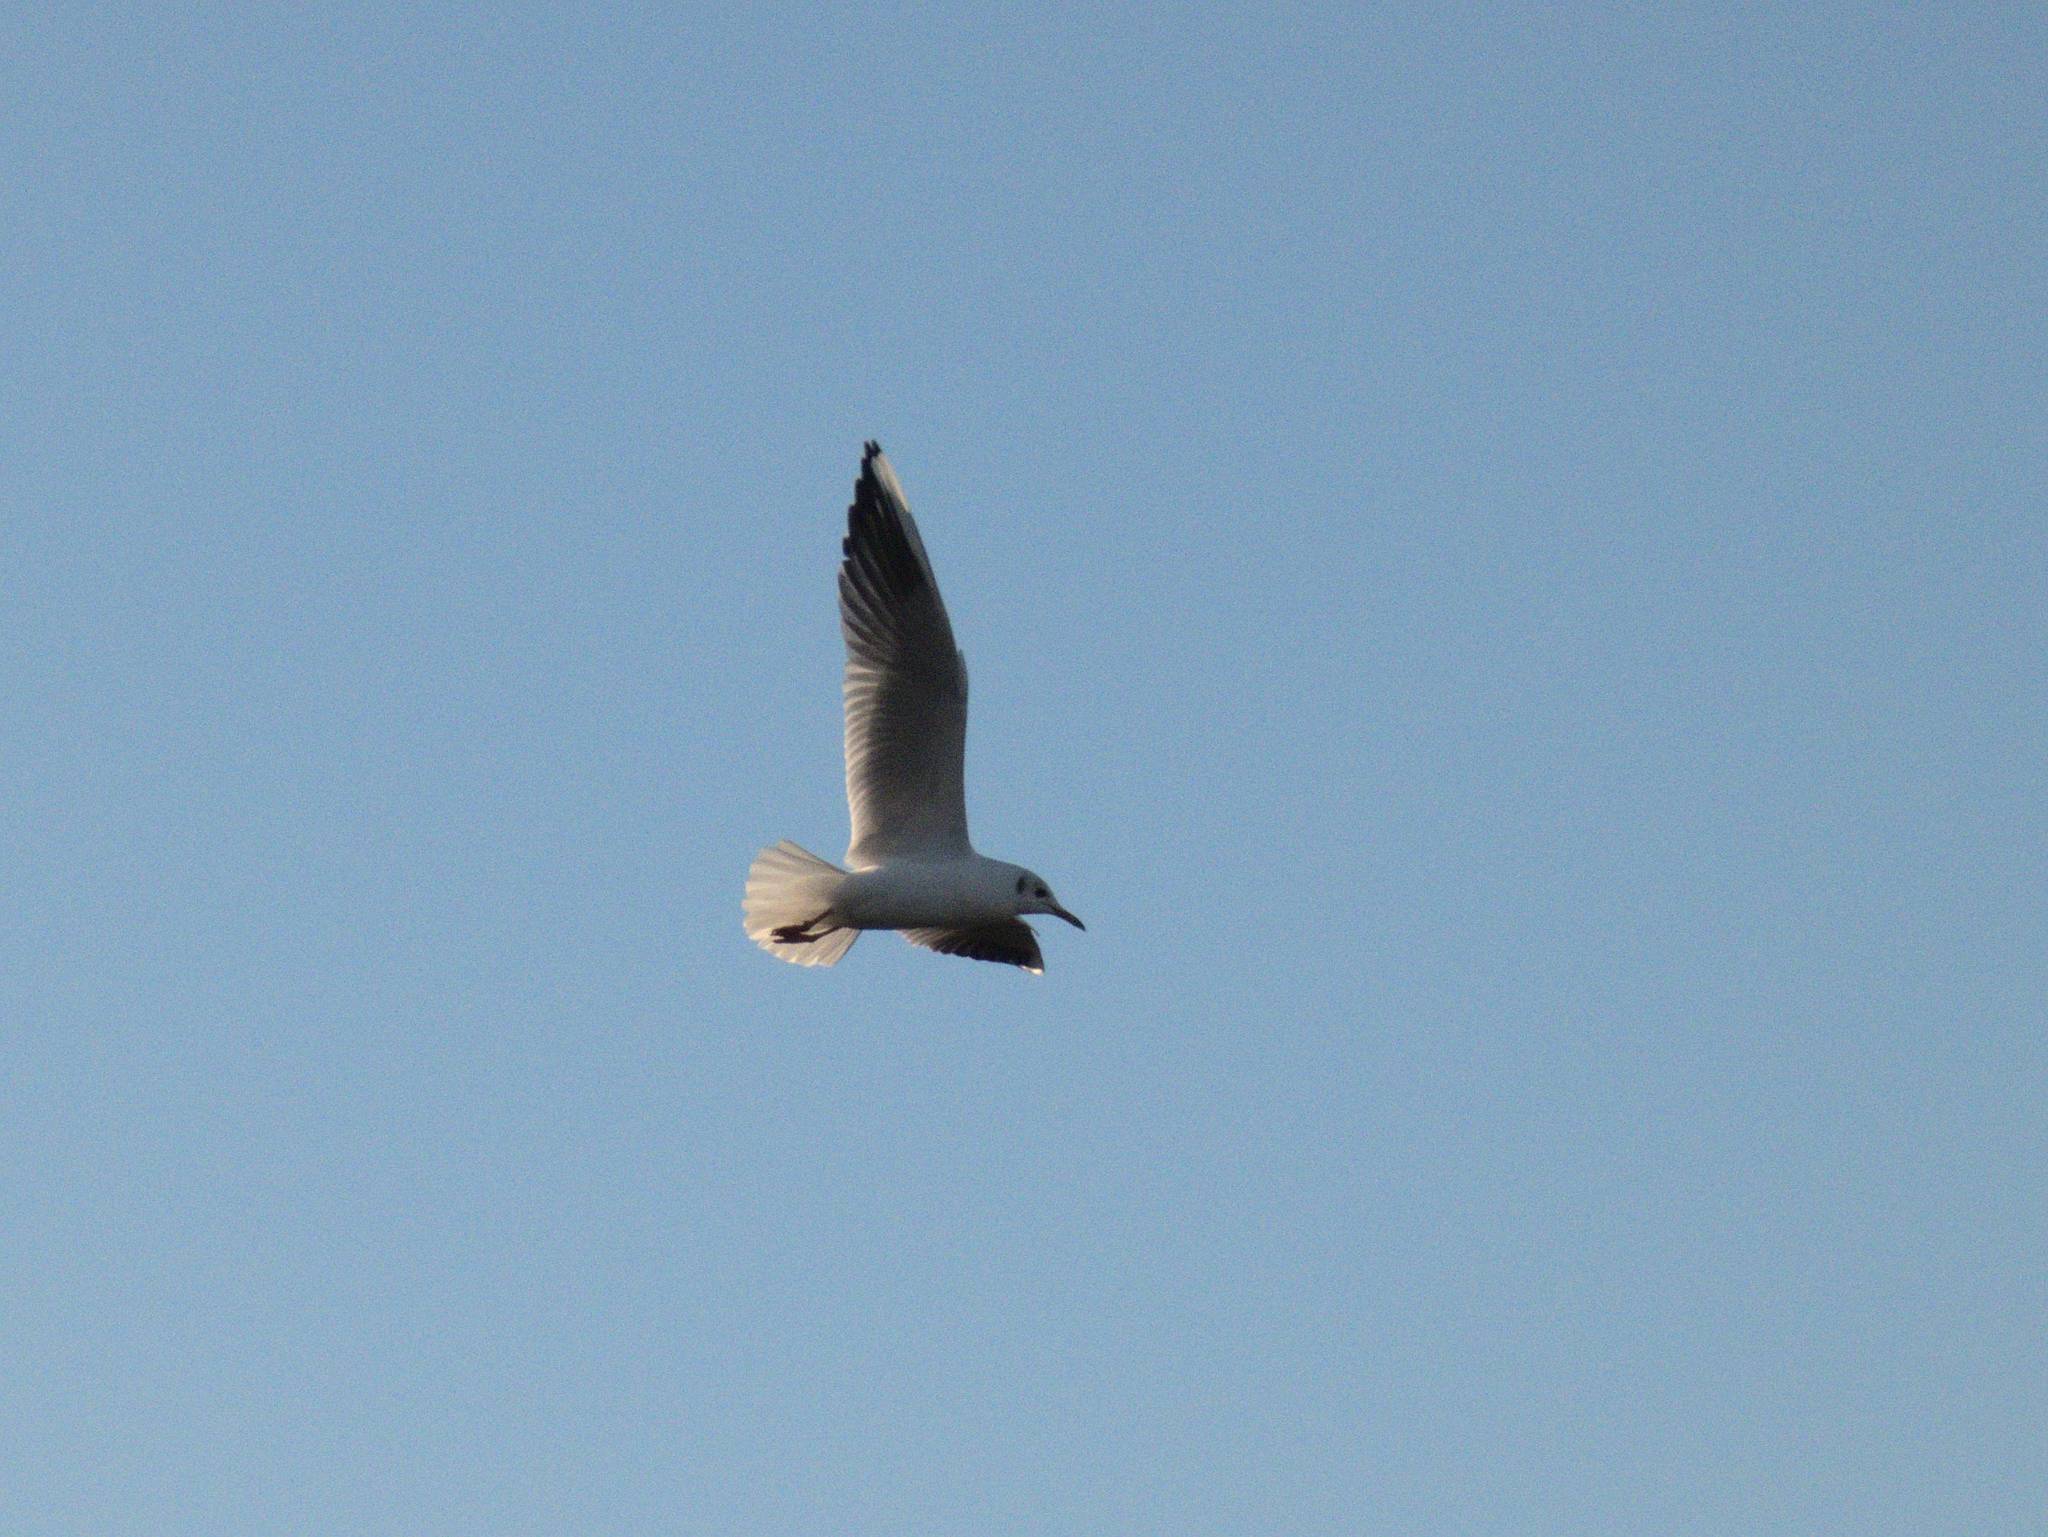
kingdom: Animalia
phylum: Chordata
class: Aves
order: Charadriiformes
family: Laridae
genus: Chroicocephalus
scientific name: Chroicocephalus ridibundus
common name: Black-headed gull
